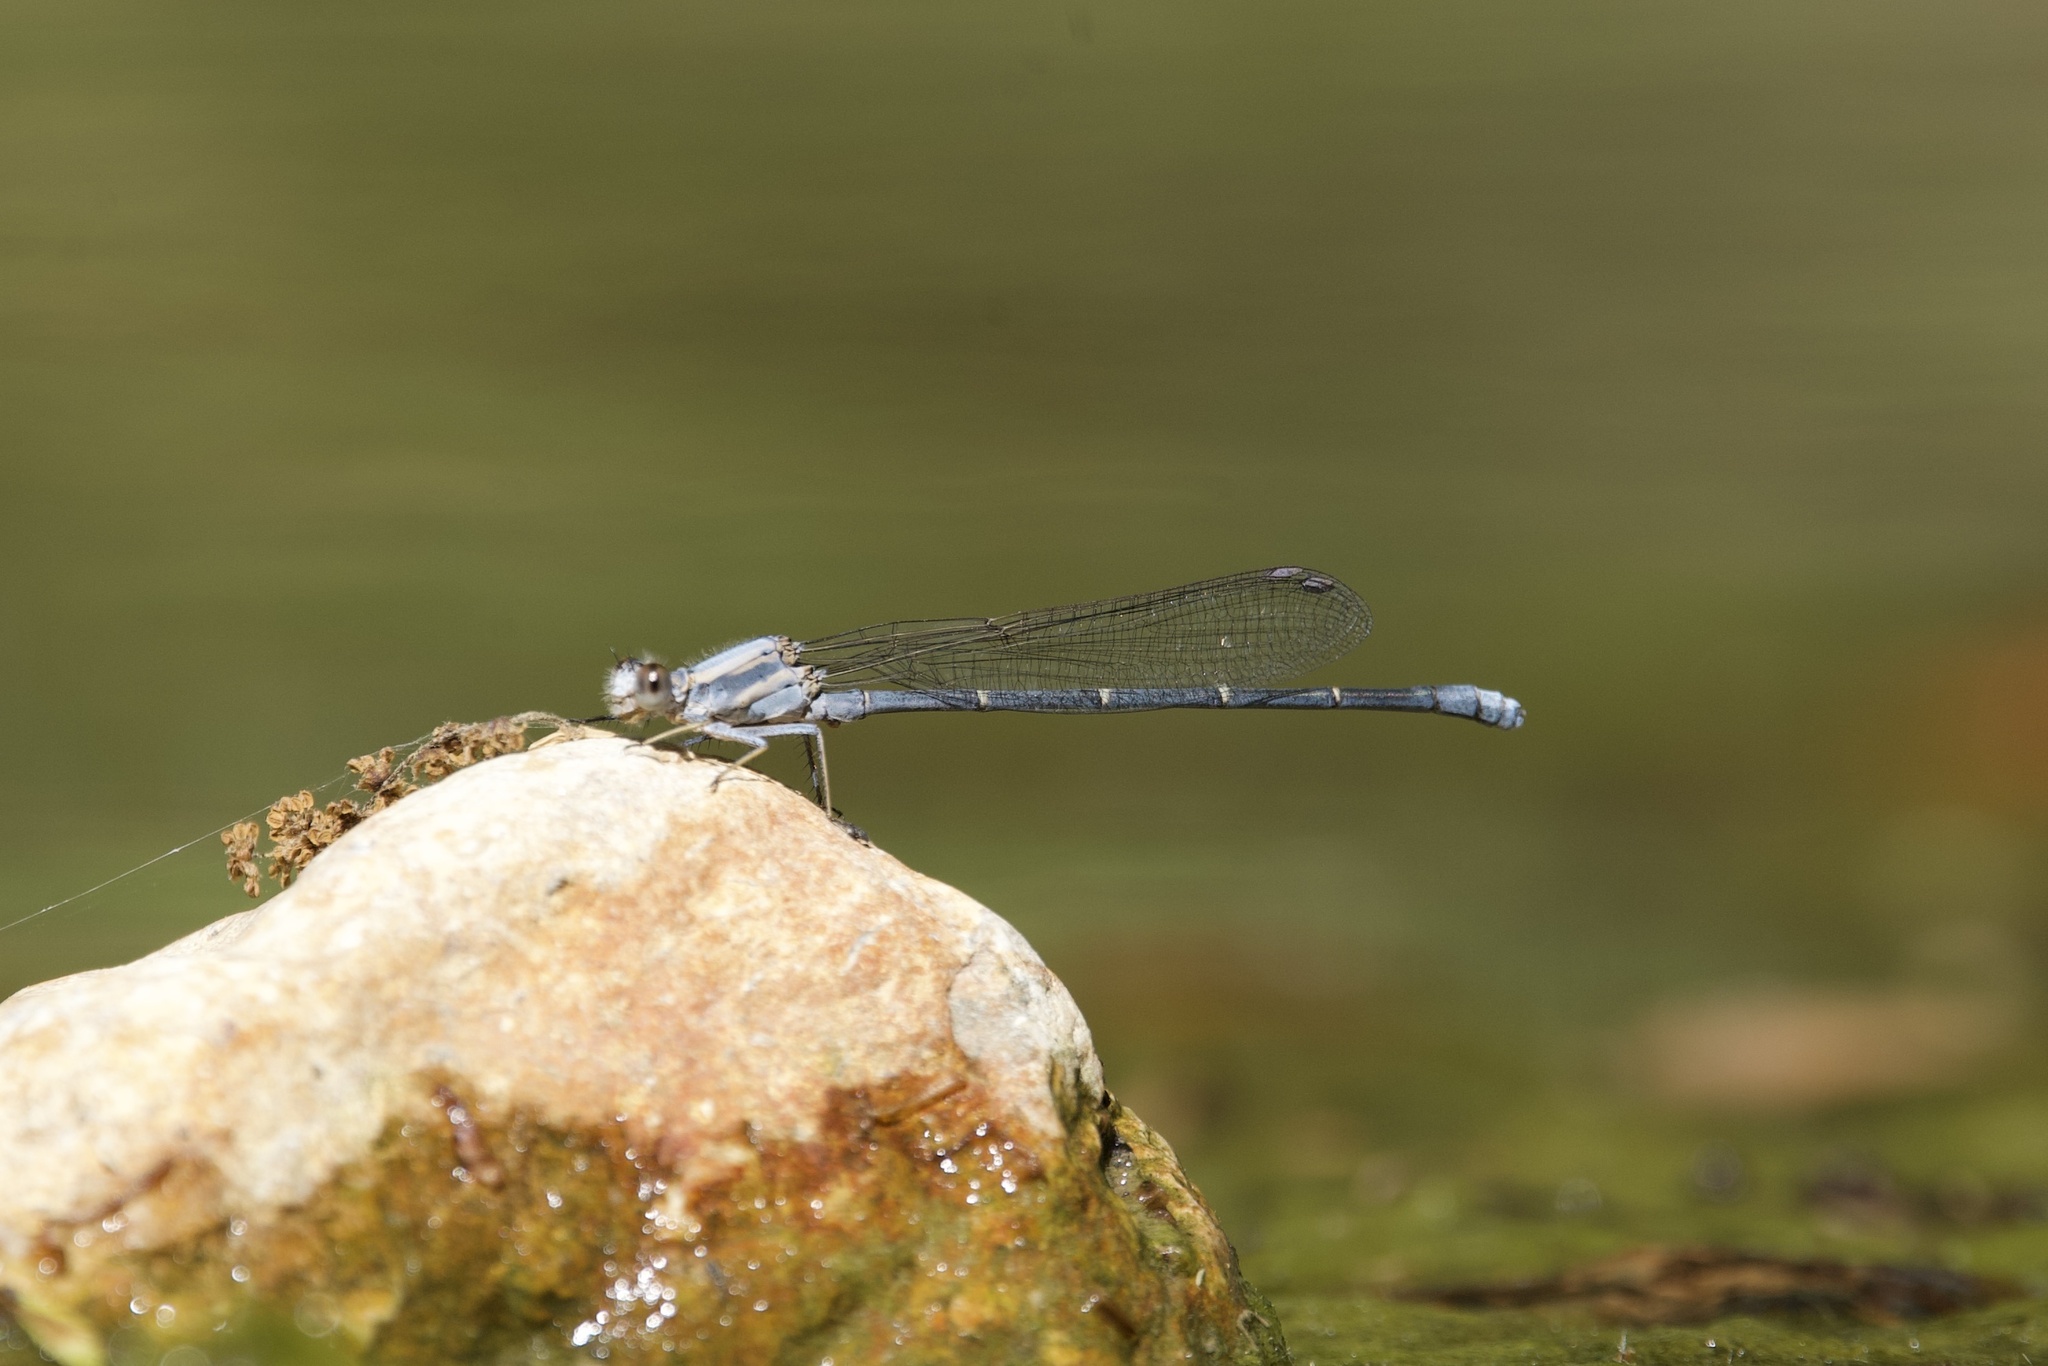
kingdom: Animalia
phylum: Arthropoda
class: Insecta
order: Odonata
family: Coenagrionidae
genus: Argia
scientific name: Argia moesta
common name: Powdered dancer
